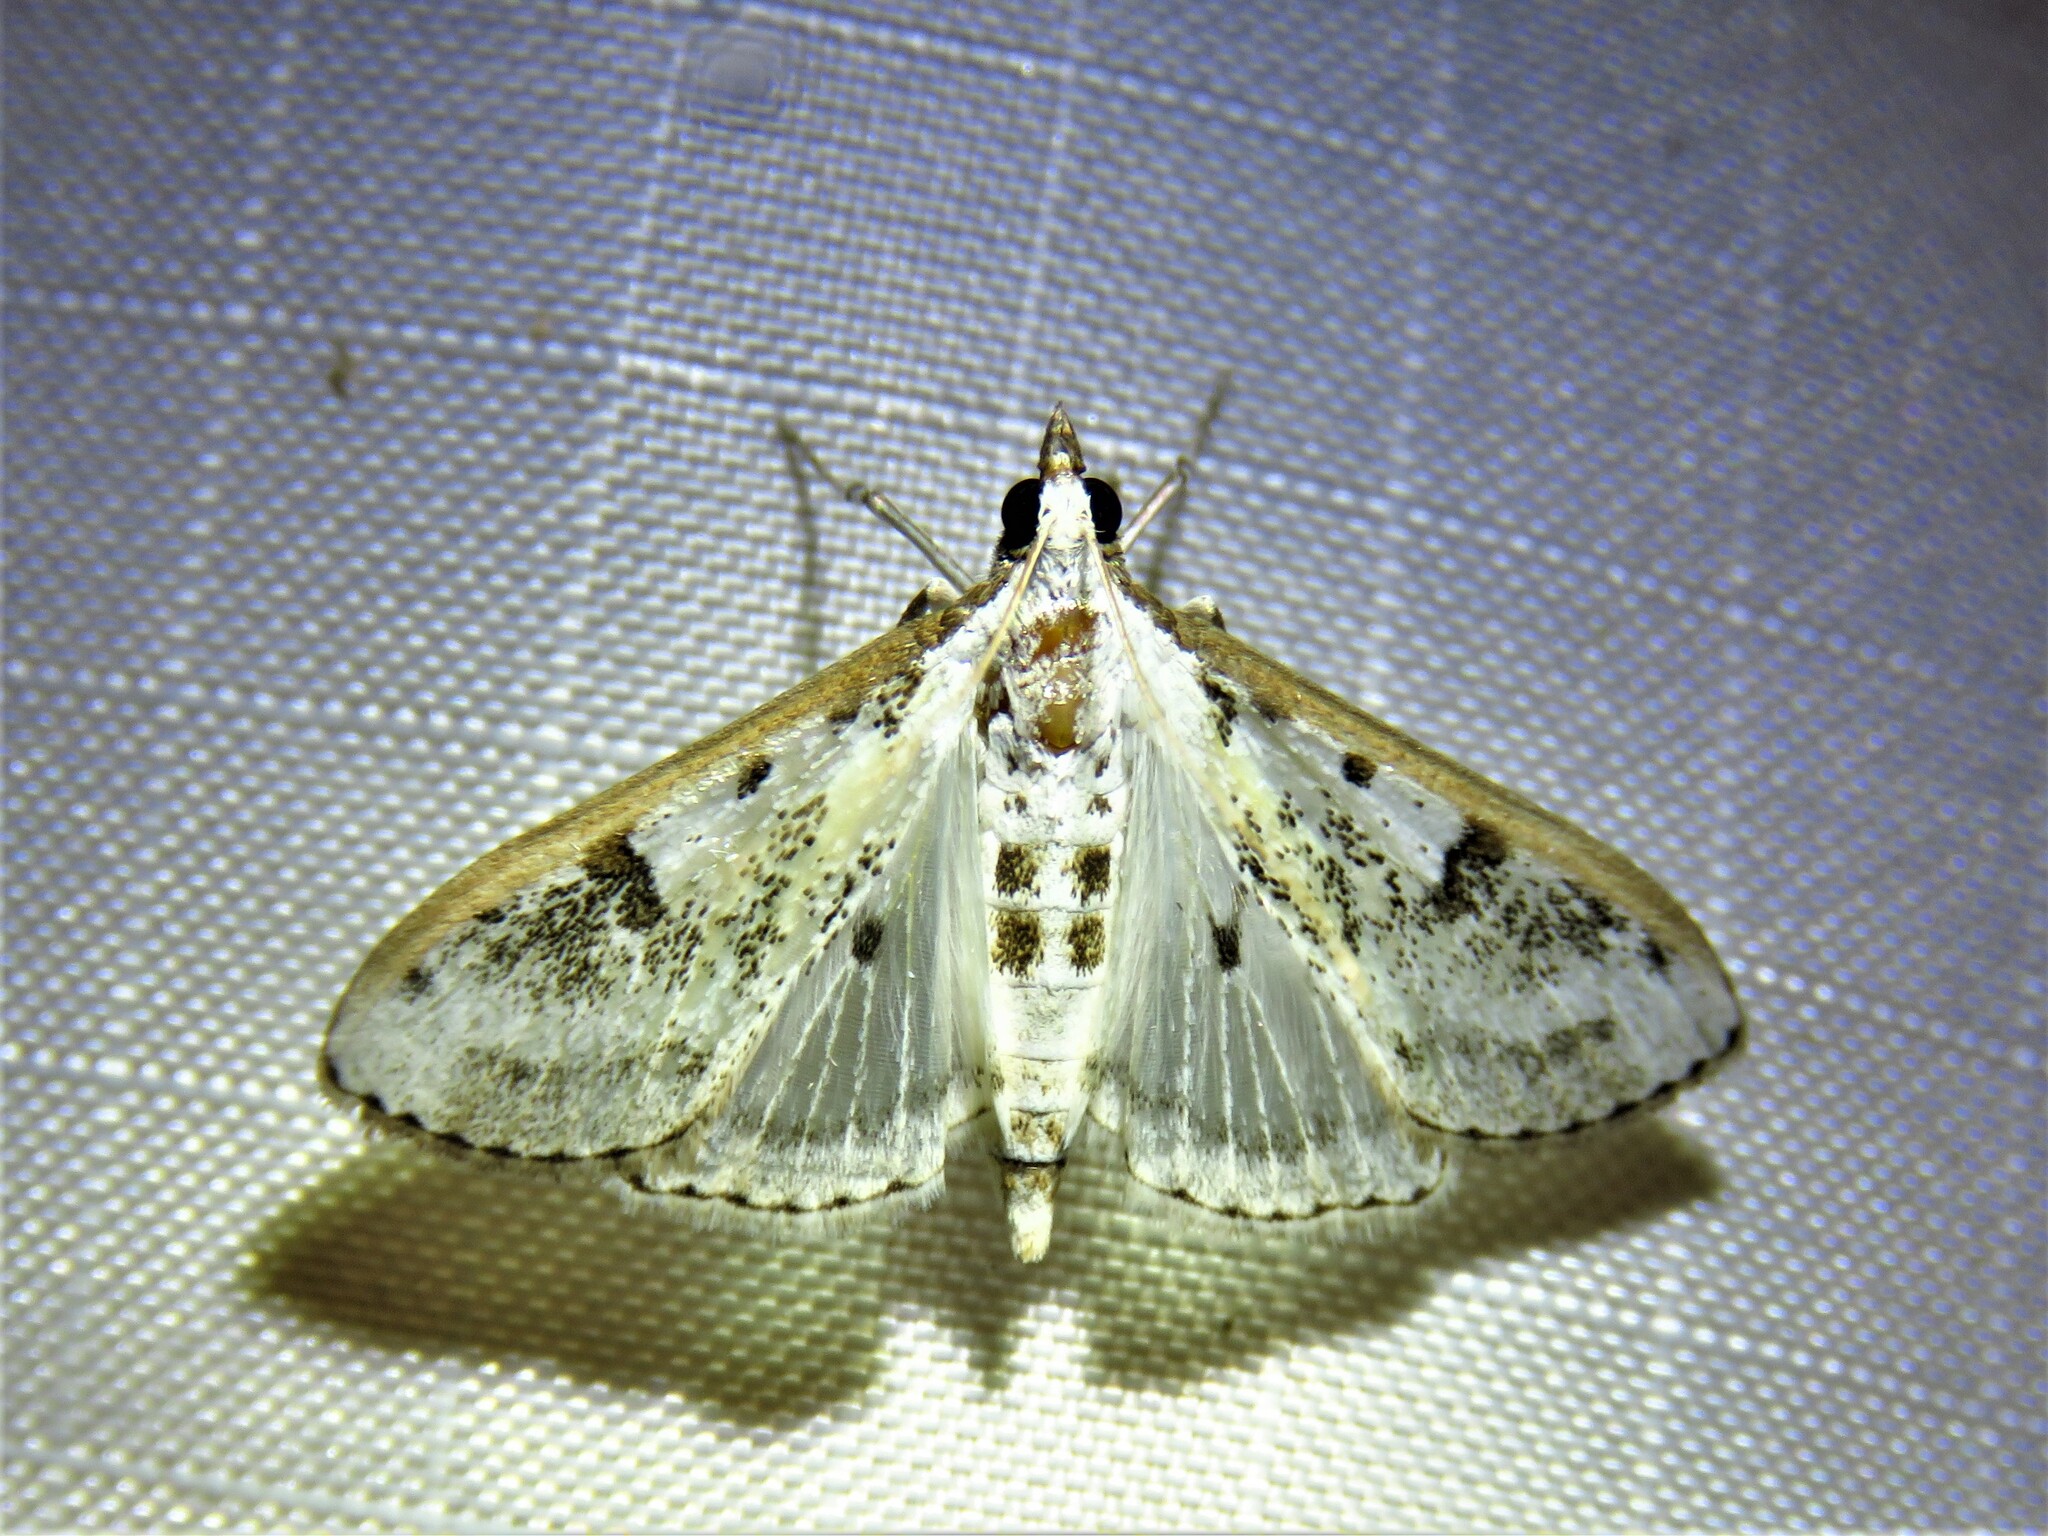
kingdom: Animalia
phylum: Arthropoda
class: Insecta
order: Lepidoptera
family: Crambidae
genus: Palpita
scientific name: Palpita gracilalis
